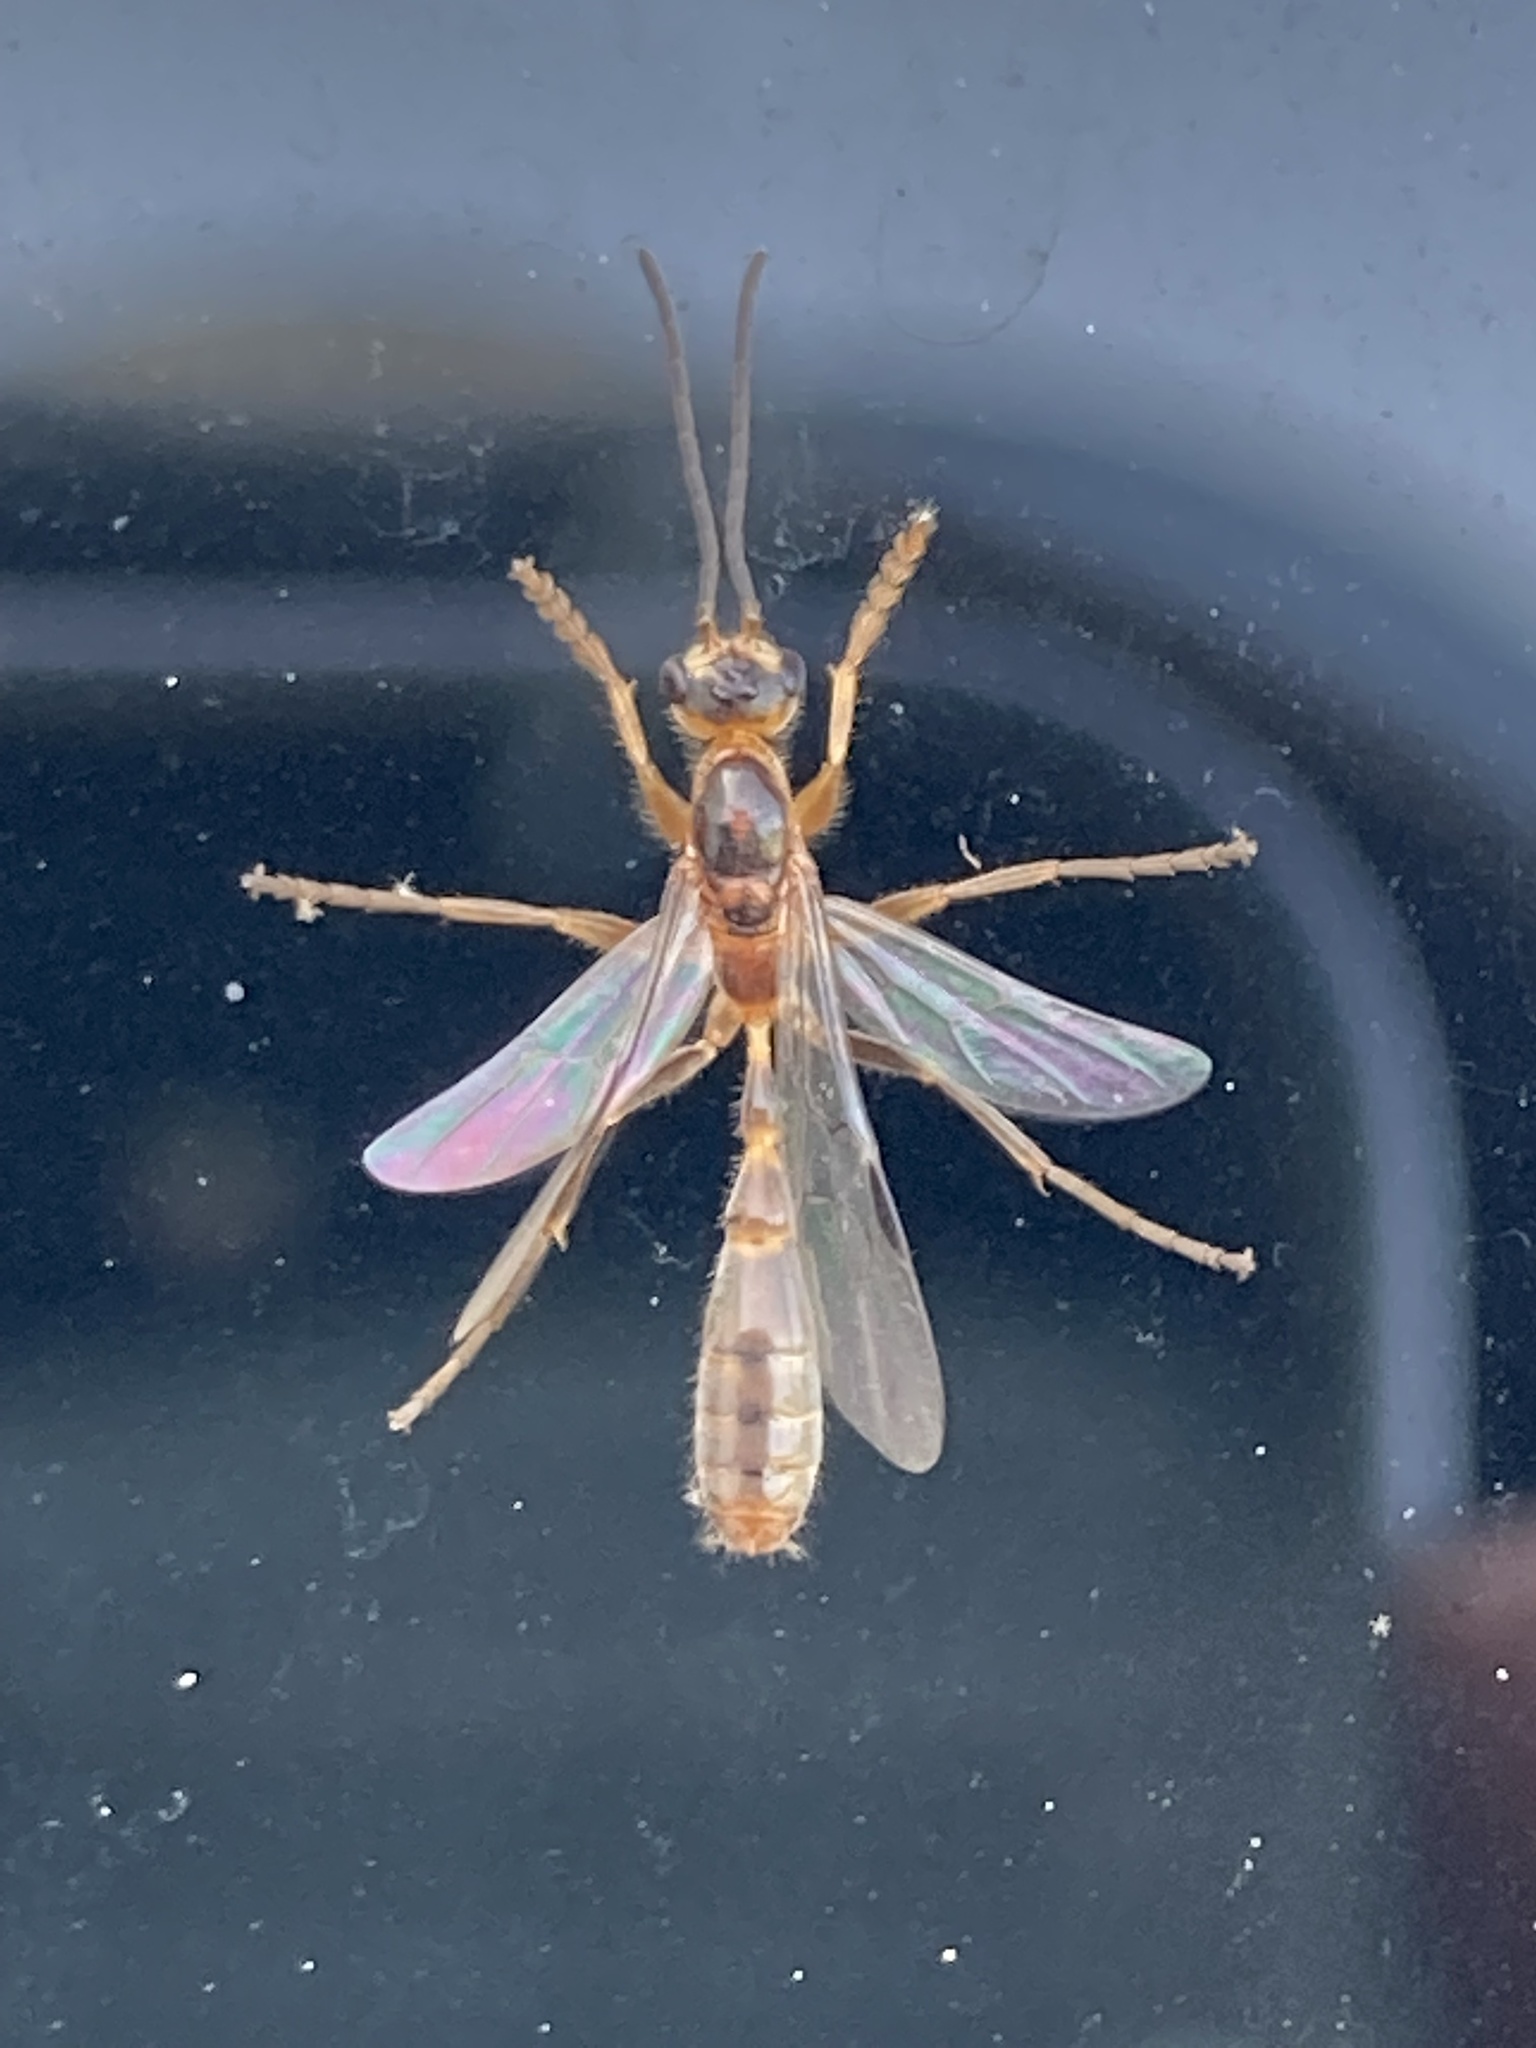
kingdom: Animalia
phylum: Arthropoda
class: Insecta
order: Hymenoptera
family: Formicidae
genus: Pseudomyrmex
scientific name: Pseudomyrmex gracilis
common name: Graceful twig ant
